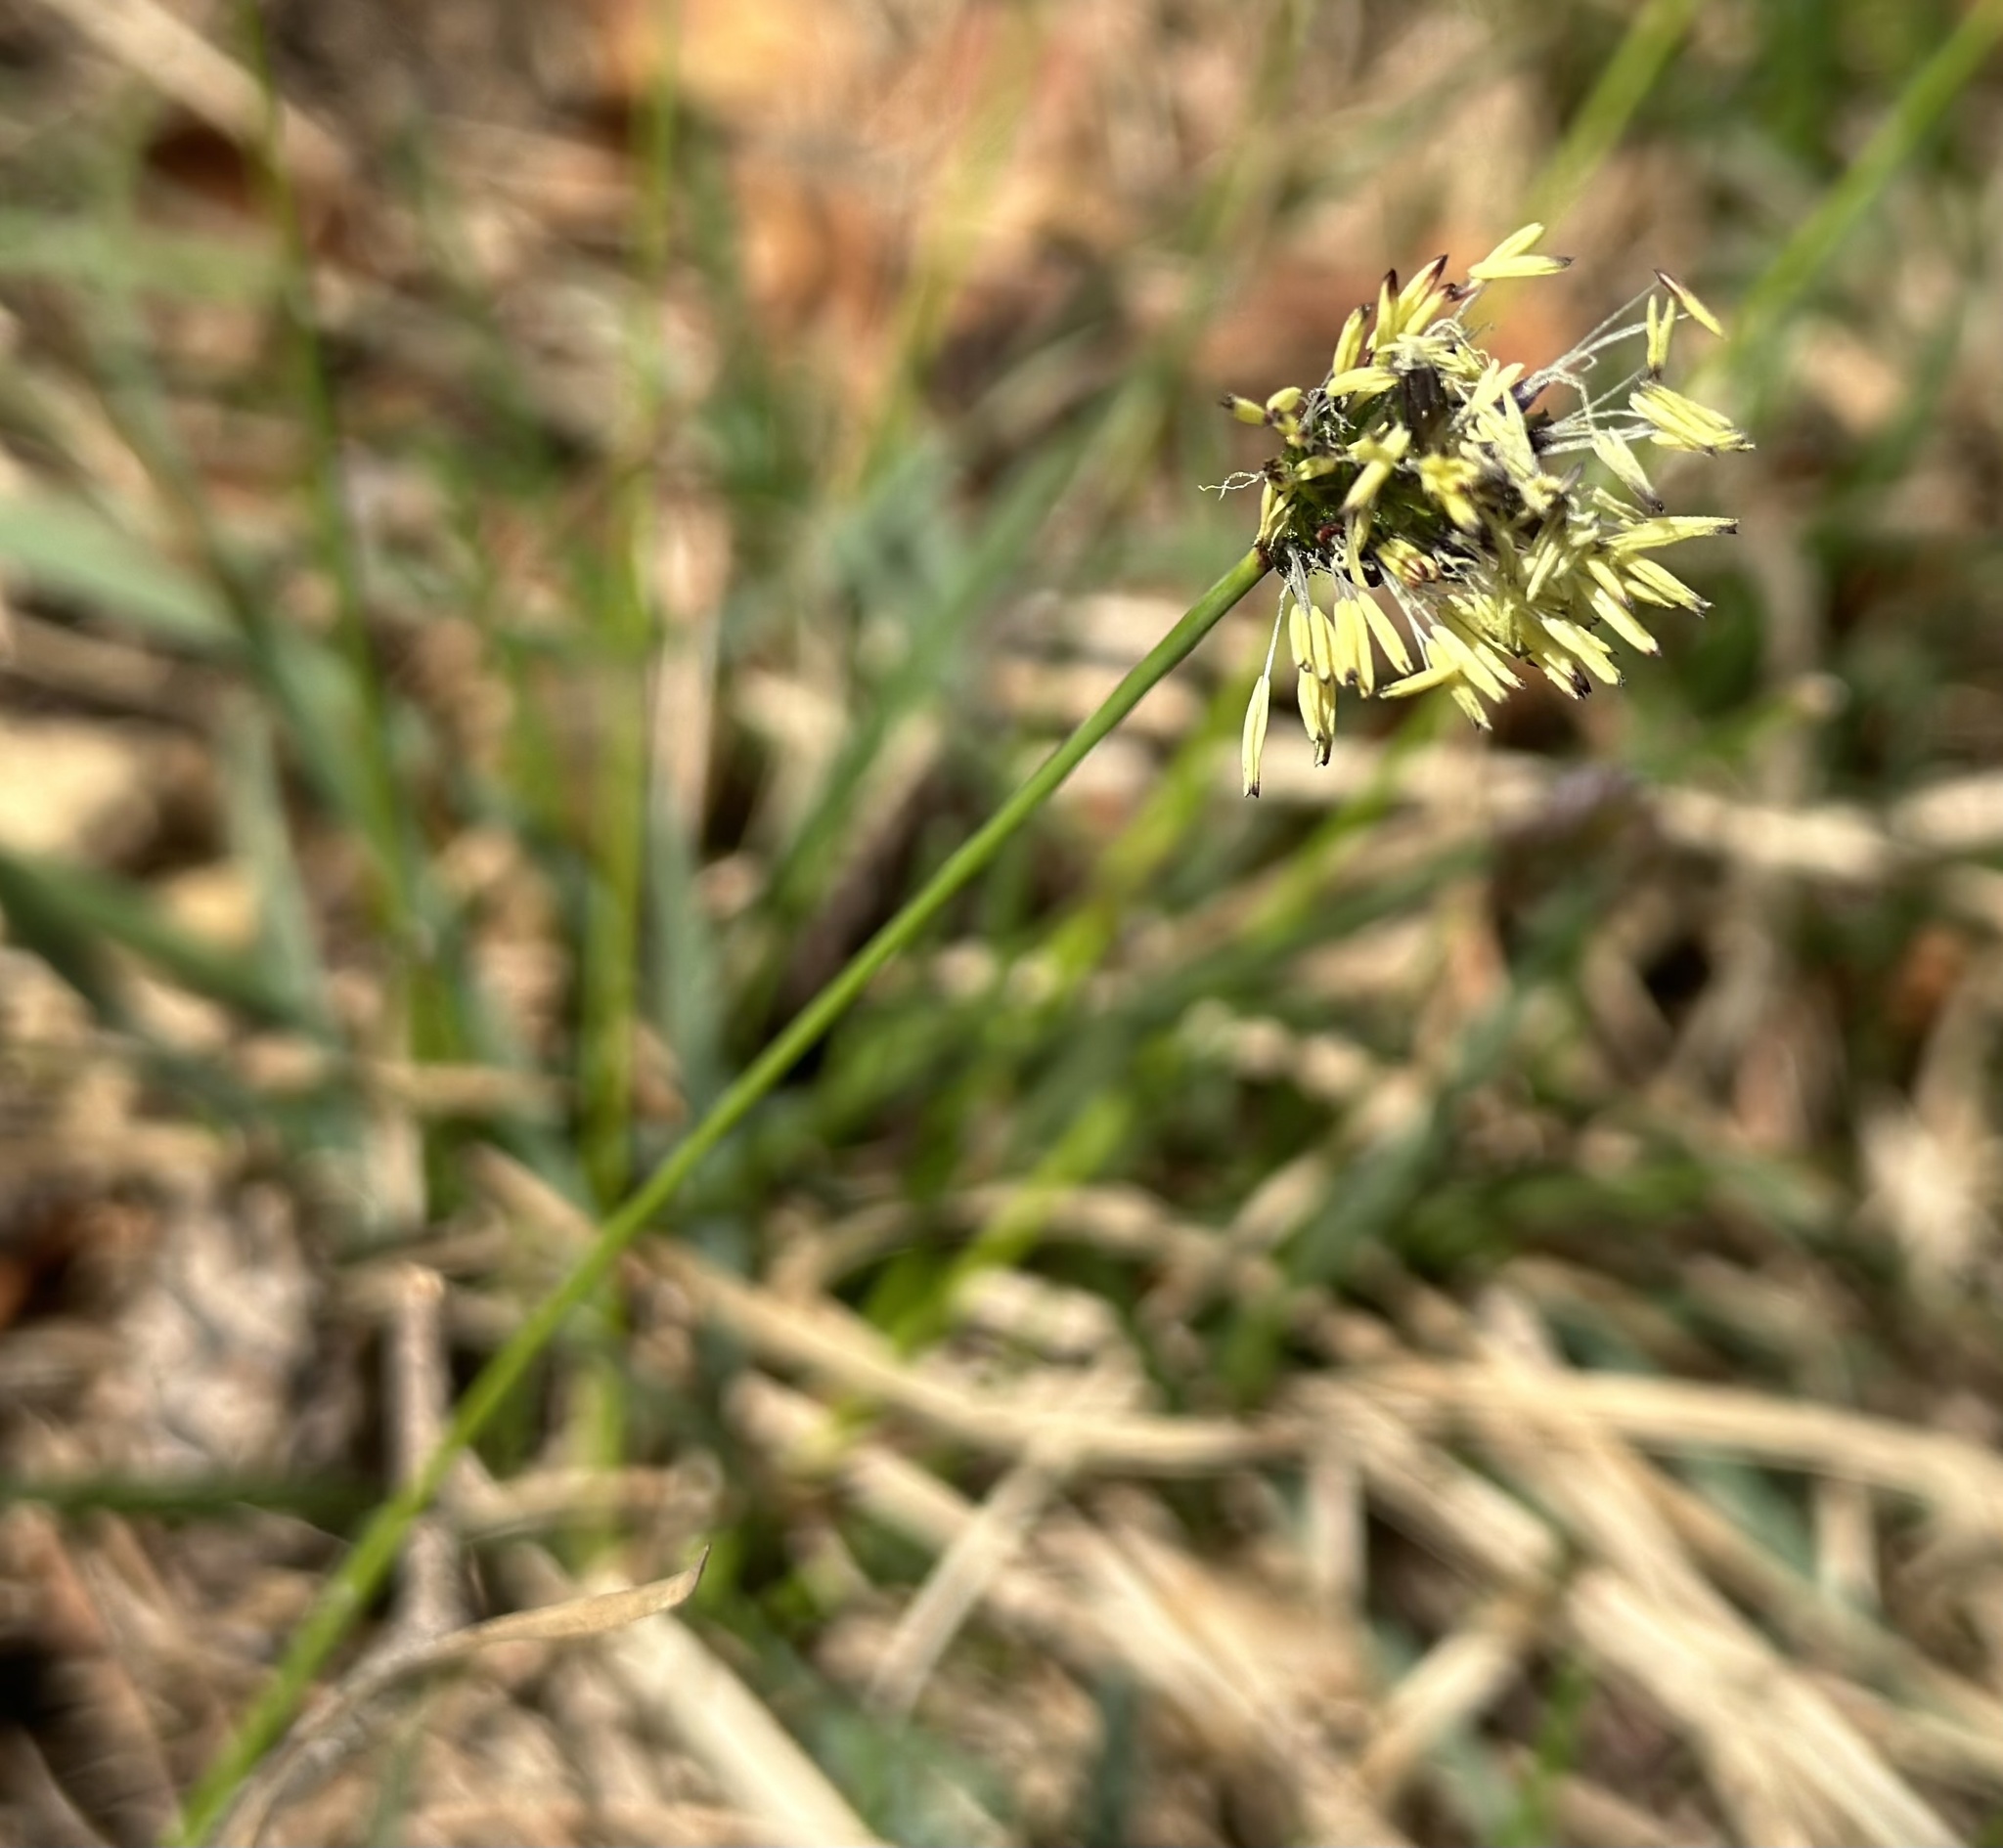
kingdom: Plantae
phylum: Tracheophyta
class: Liliopsida
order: Poales
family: Poaceae
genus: Sesleria
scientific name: Sesleria caerulea
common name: Blue moor-grass
